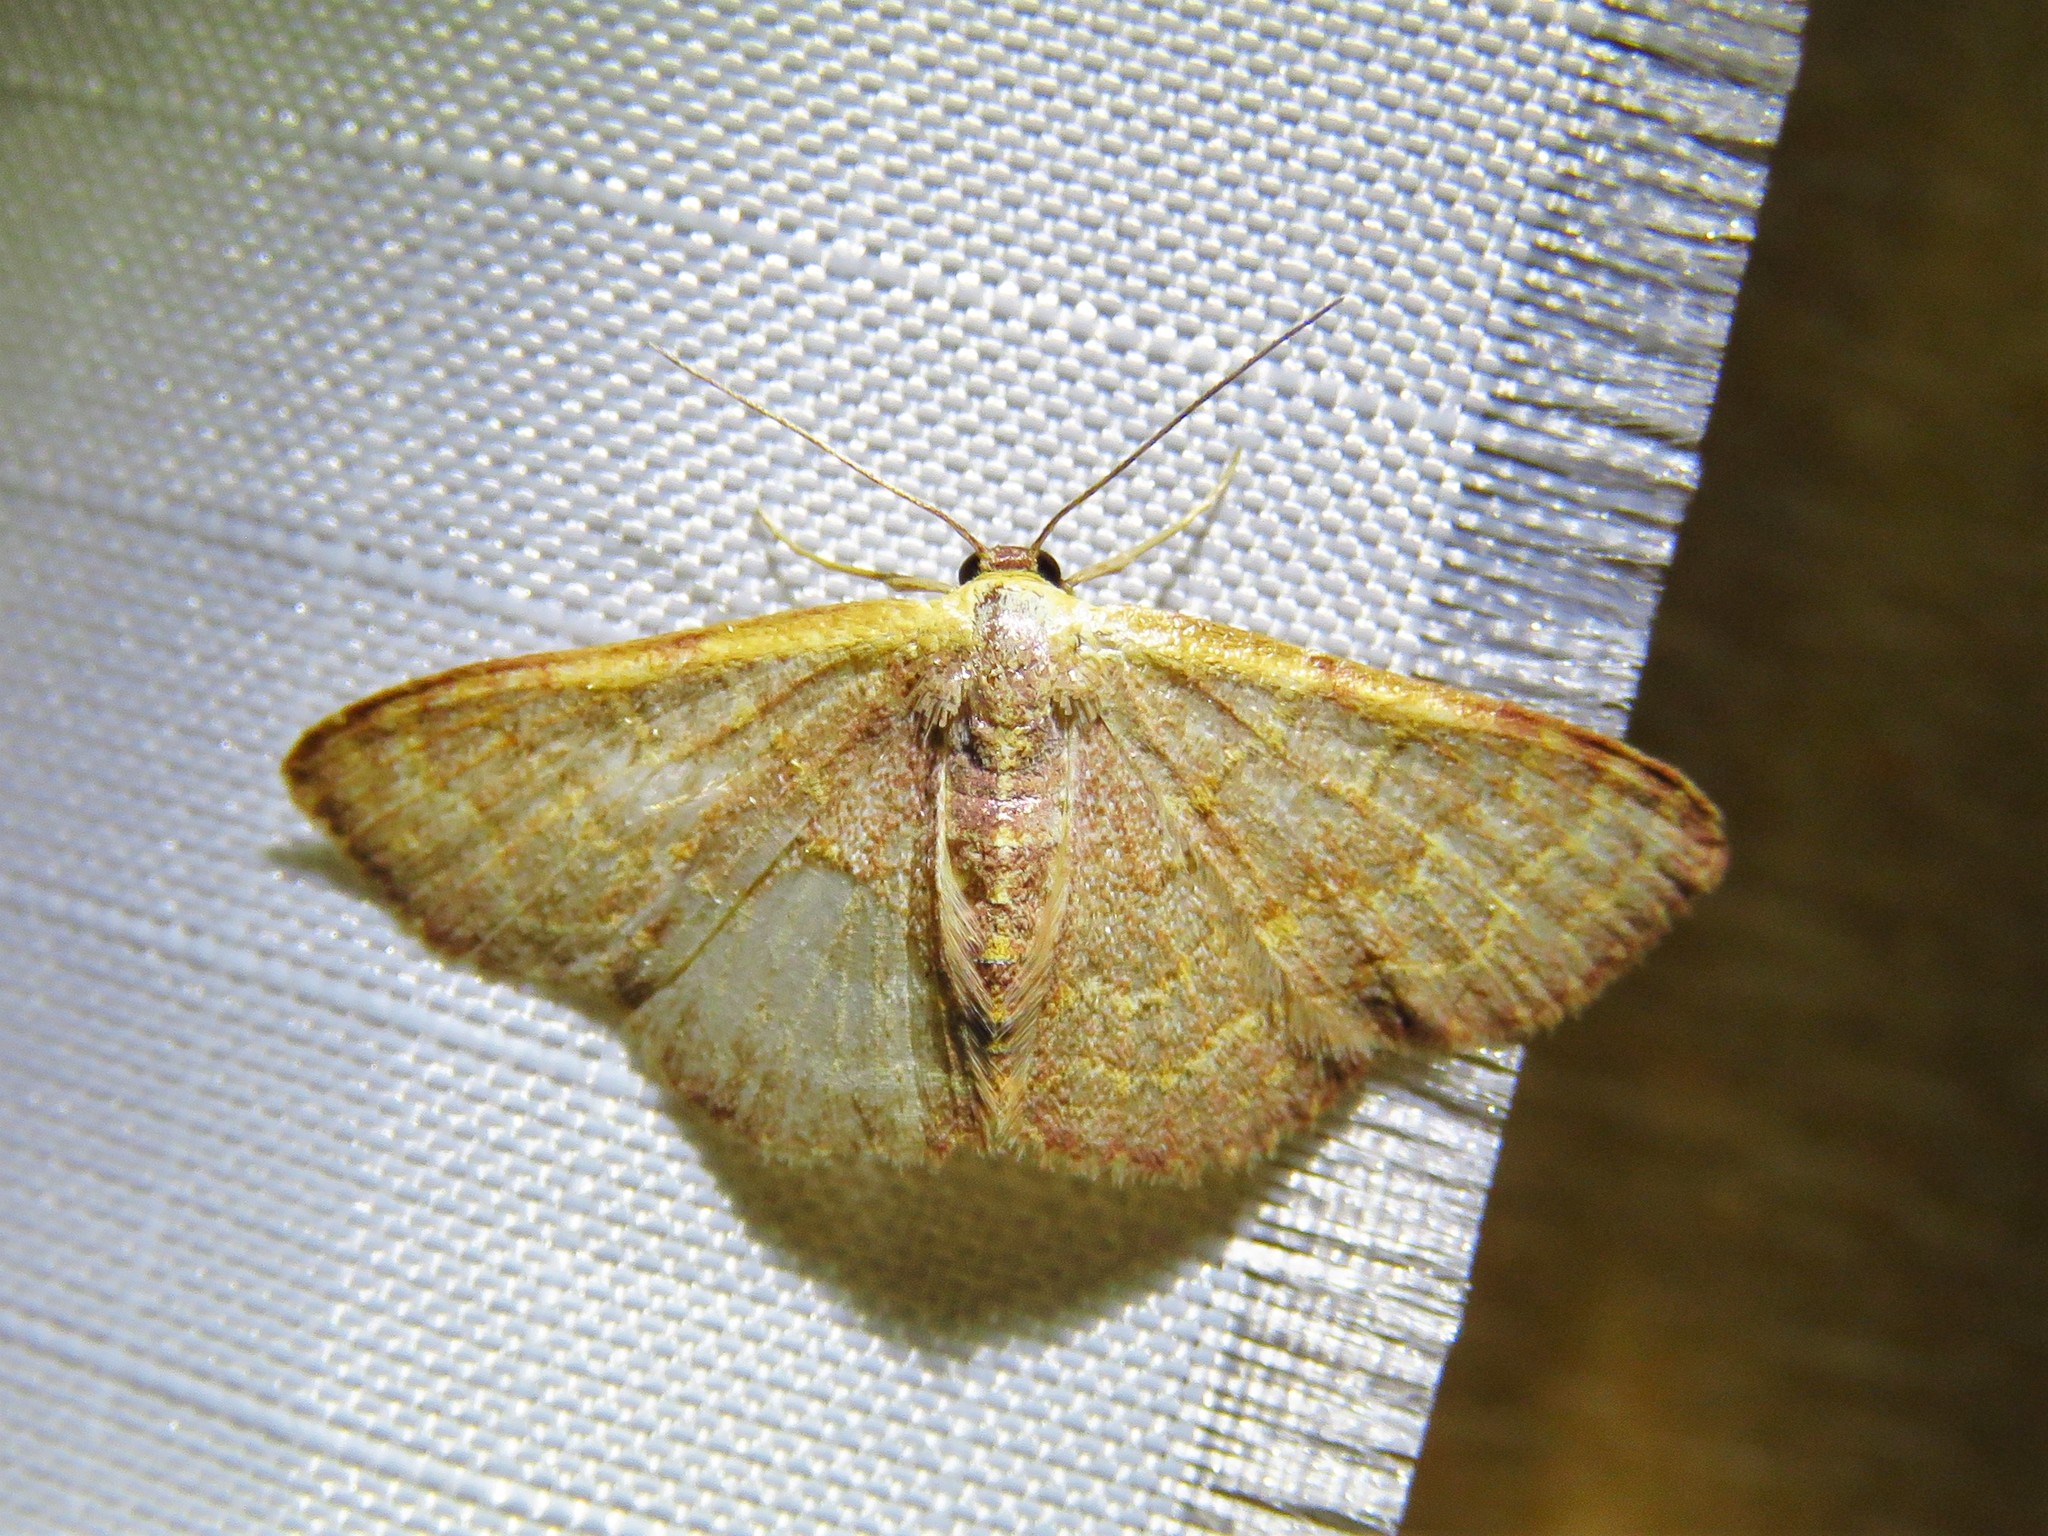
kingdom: Animalia
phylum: Arthropoda
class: Insecta
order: Lepidoptera
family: Geometridae
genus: Leptostales
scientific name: Leptostales pannaria
